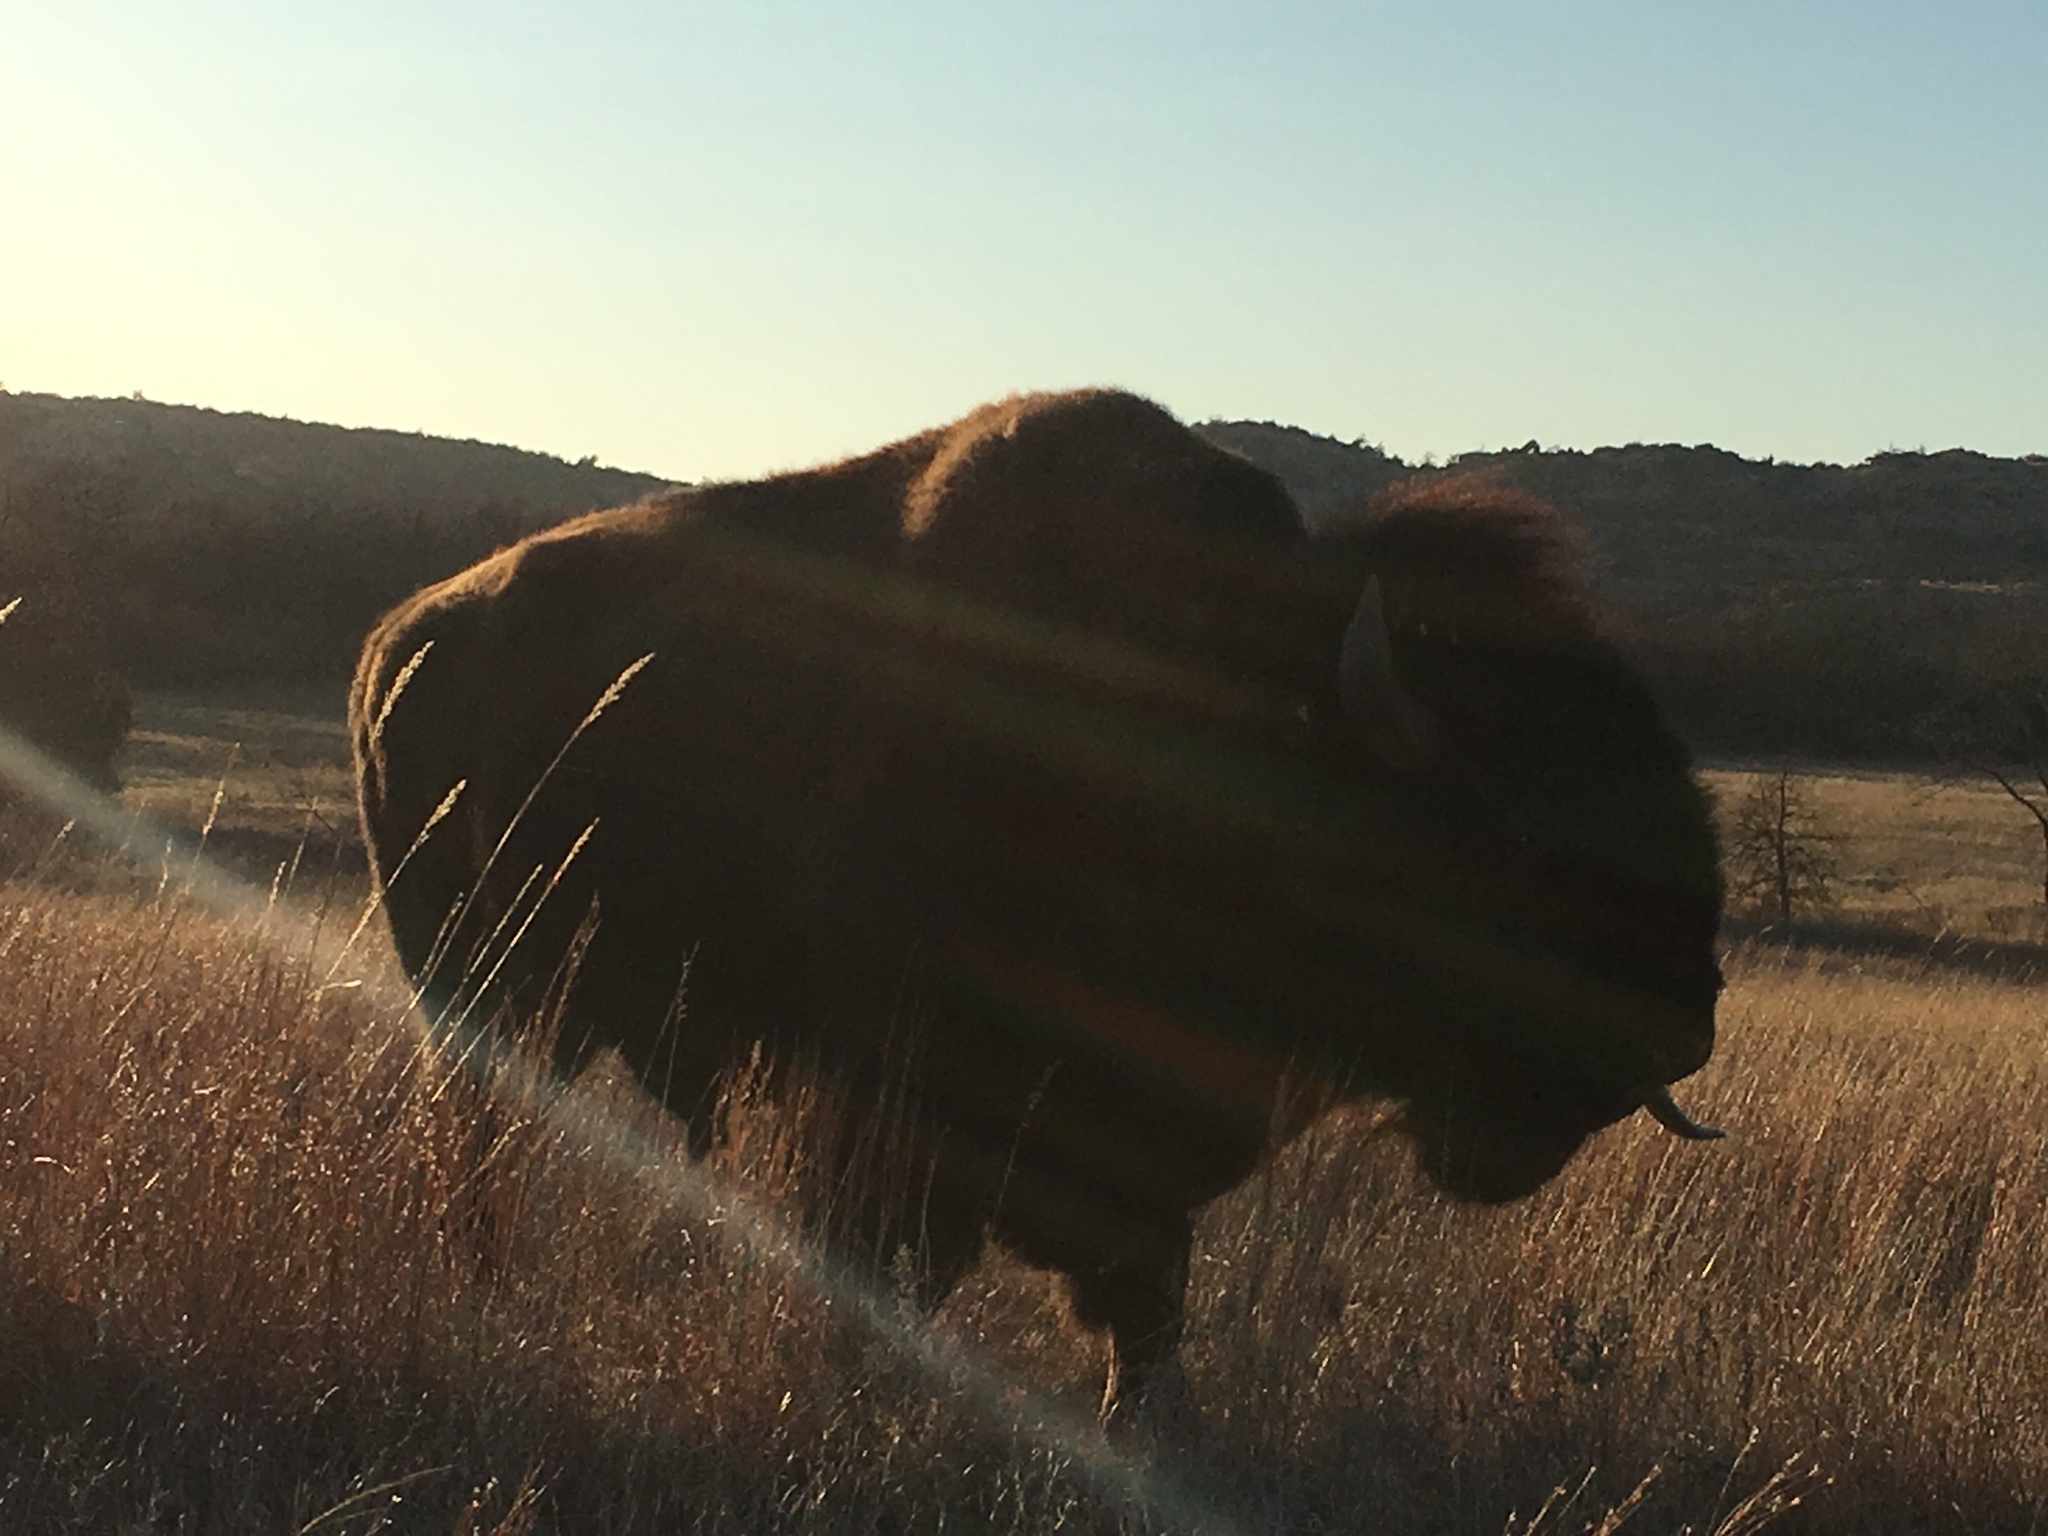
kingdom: Animalia
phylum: Chordata
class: Mammalia
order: Artiodactyla
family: Bovidae
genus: Bison
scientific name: Bison bison
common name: American bison
